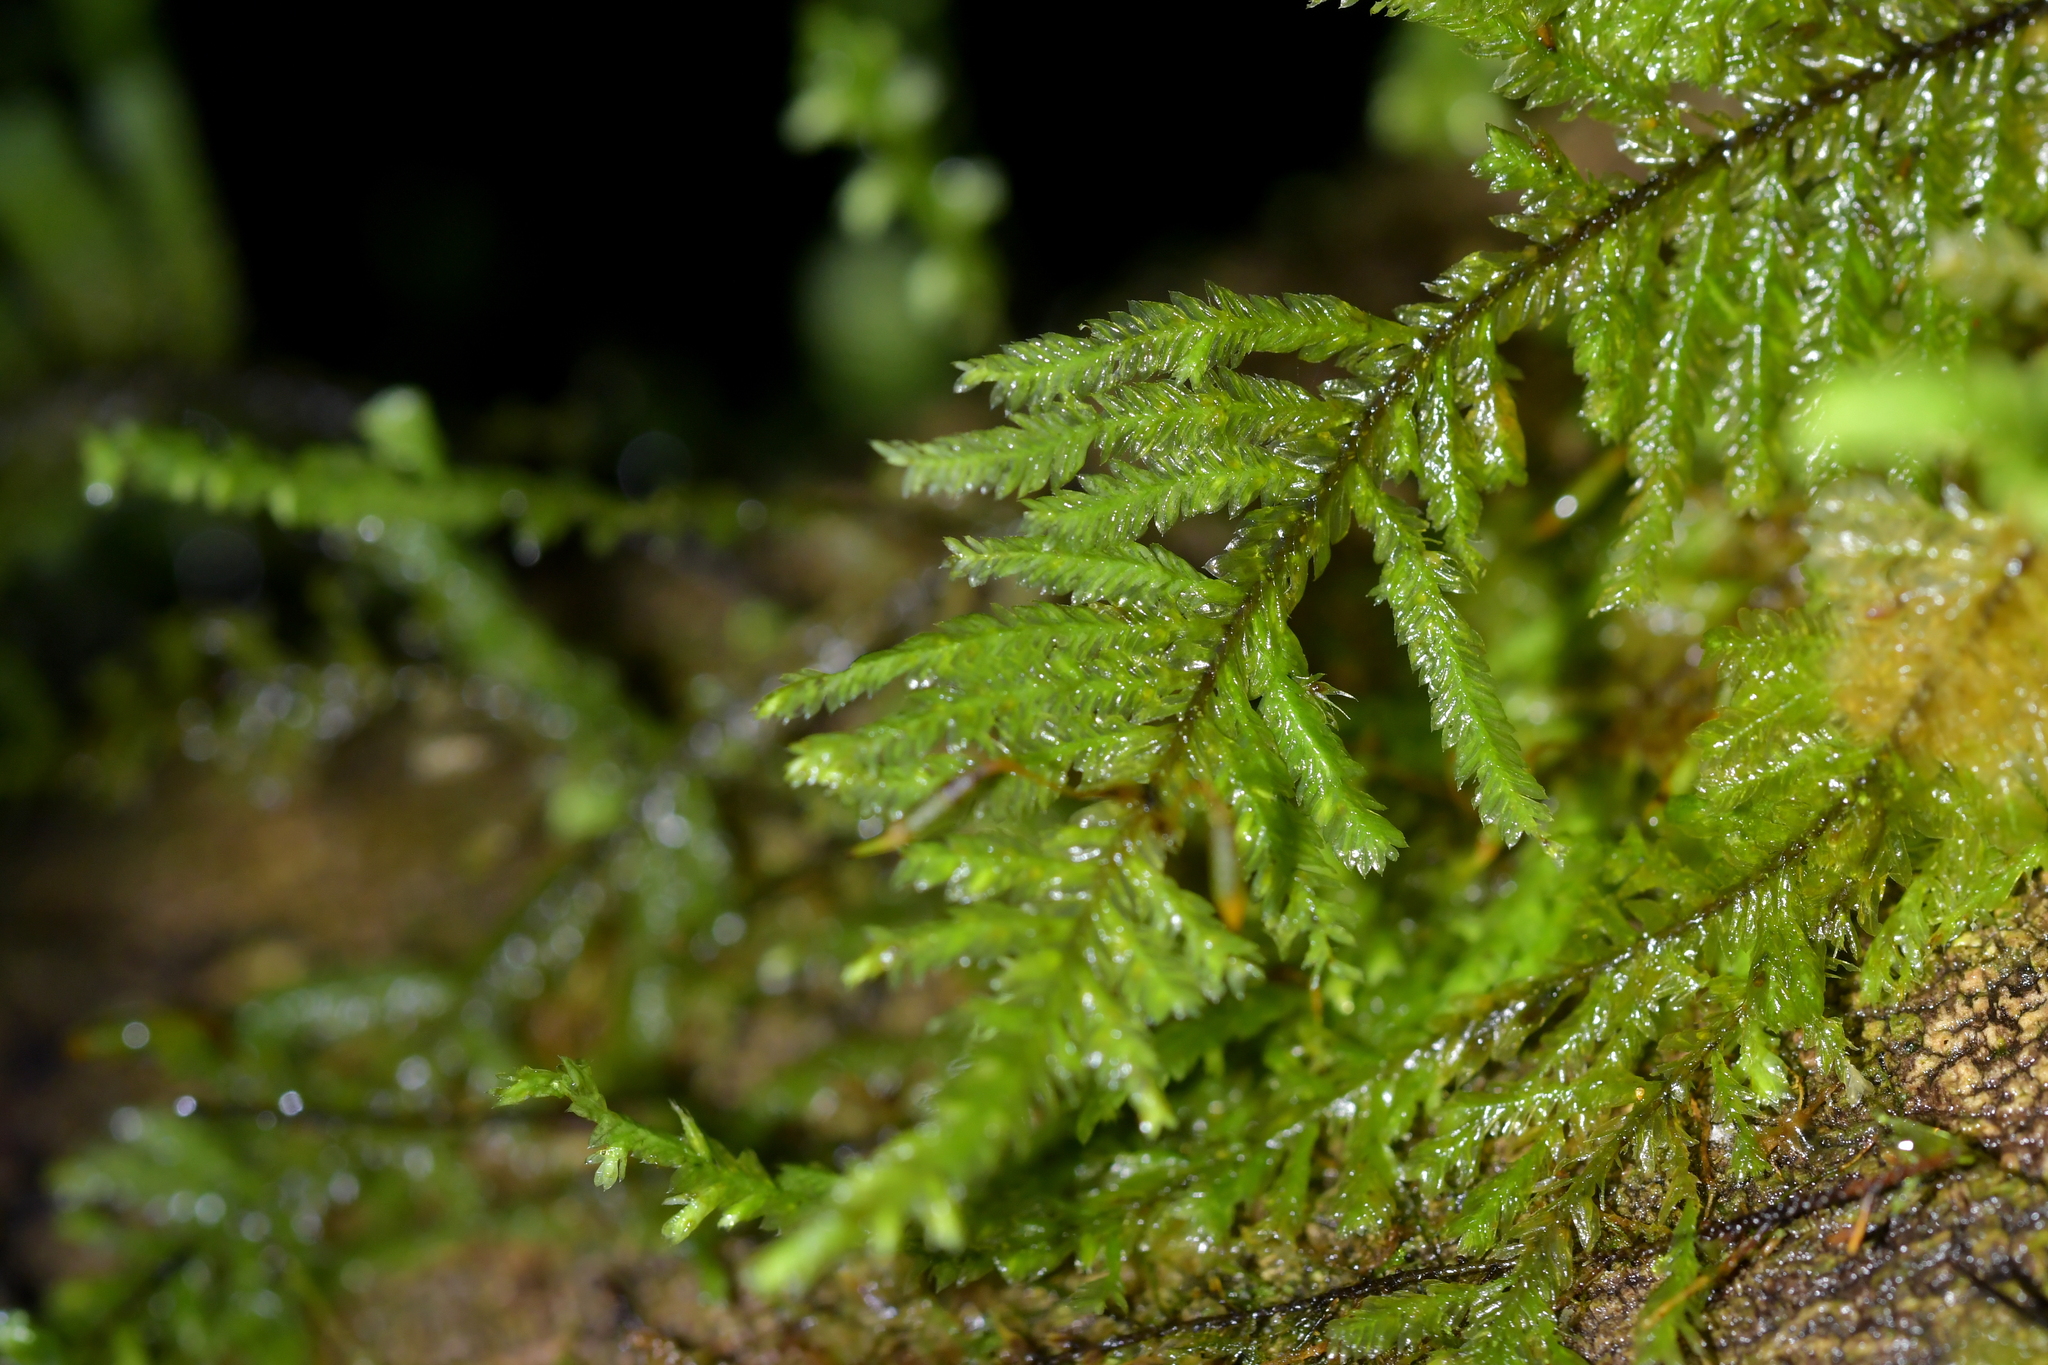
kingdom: Plantae
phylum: Bryophyta
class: Bryopsida
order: Hypopterygiales
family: Hypopterygiaceae
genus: Lopidium
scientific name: Lopidium concinnum
